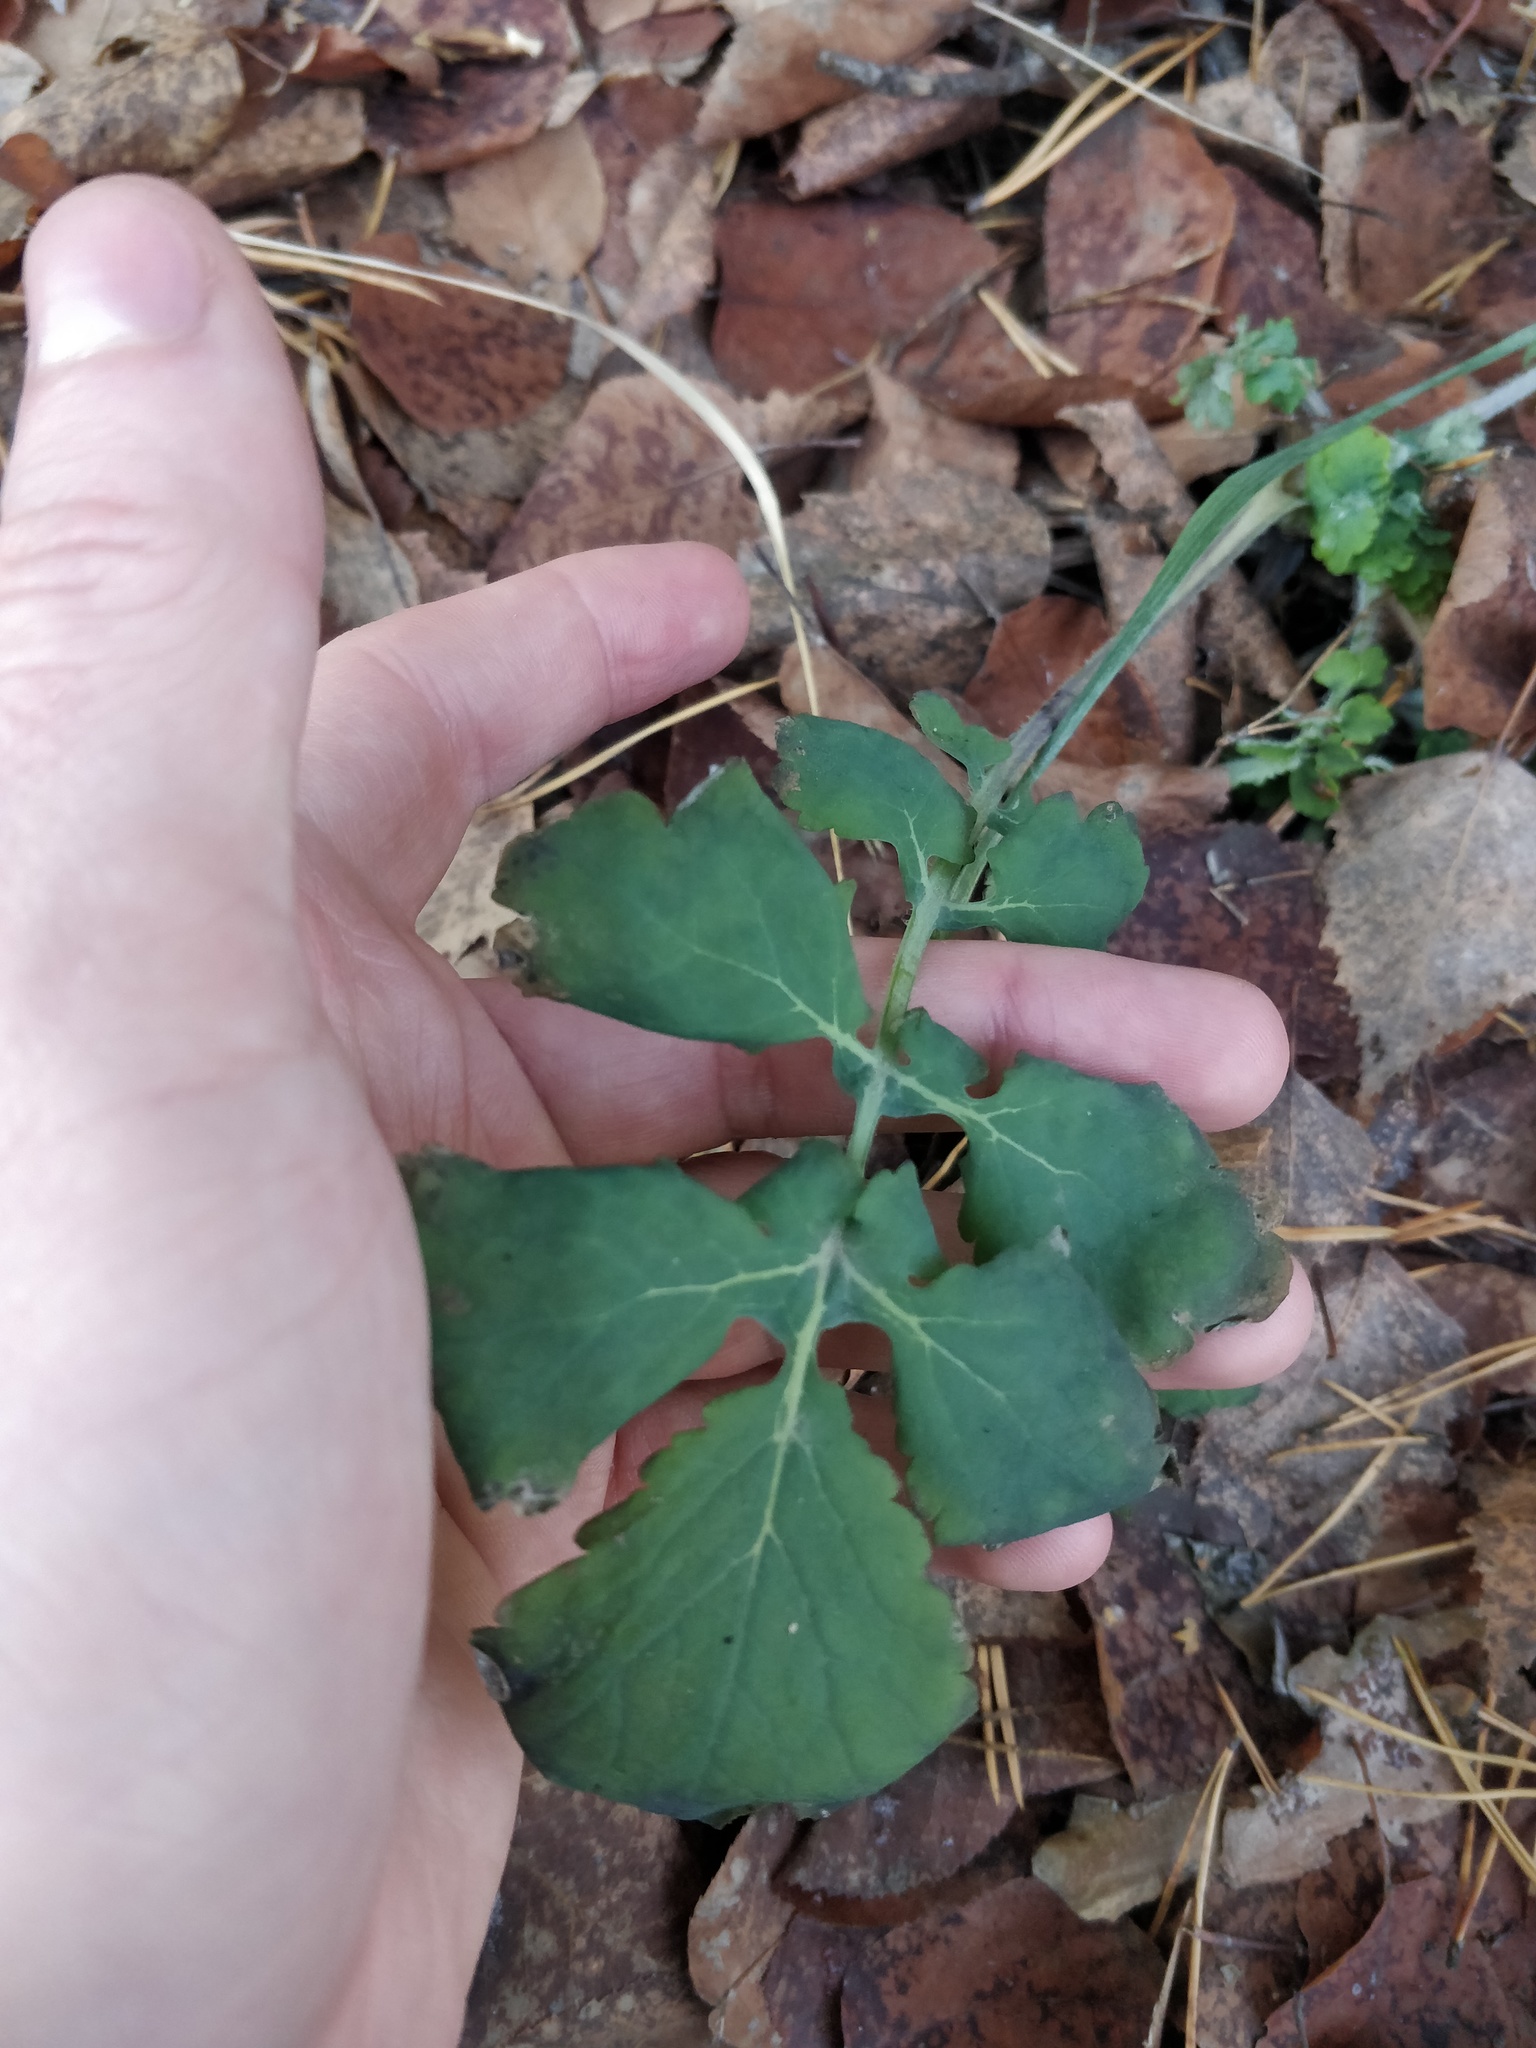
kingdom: Plantae
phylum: Tracheophyta
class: Magnoliopsida
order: Ranunculales
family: Papaveraceae
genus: Chelidonium
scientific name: Chelidonium majus
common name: Greater celandine
